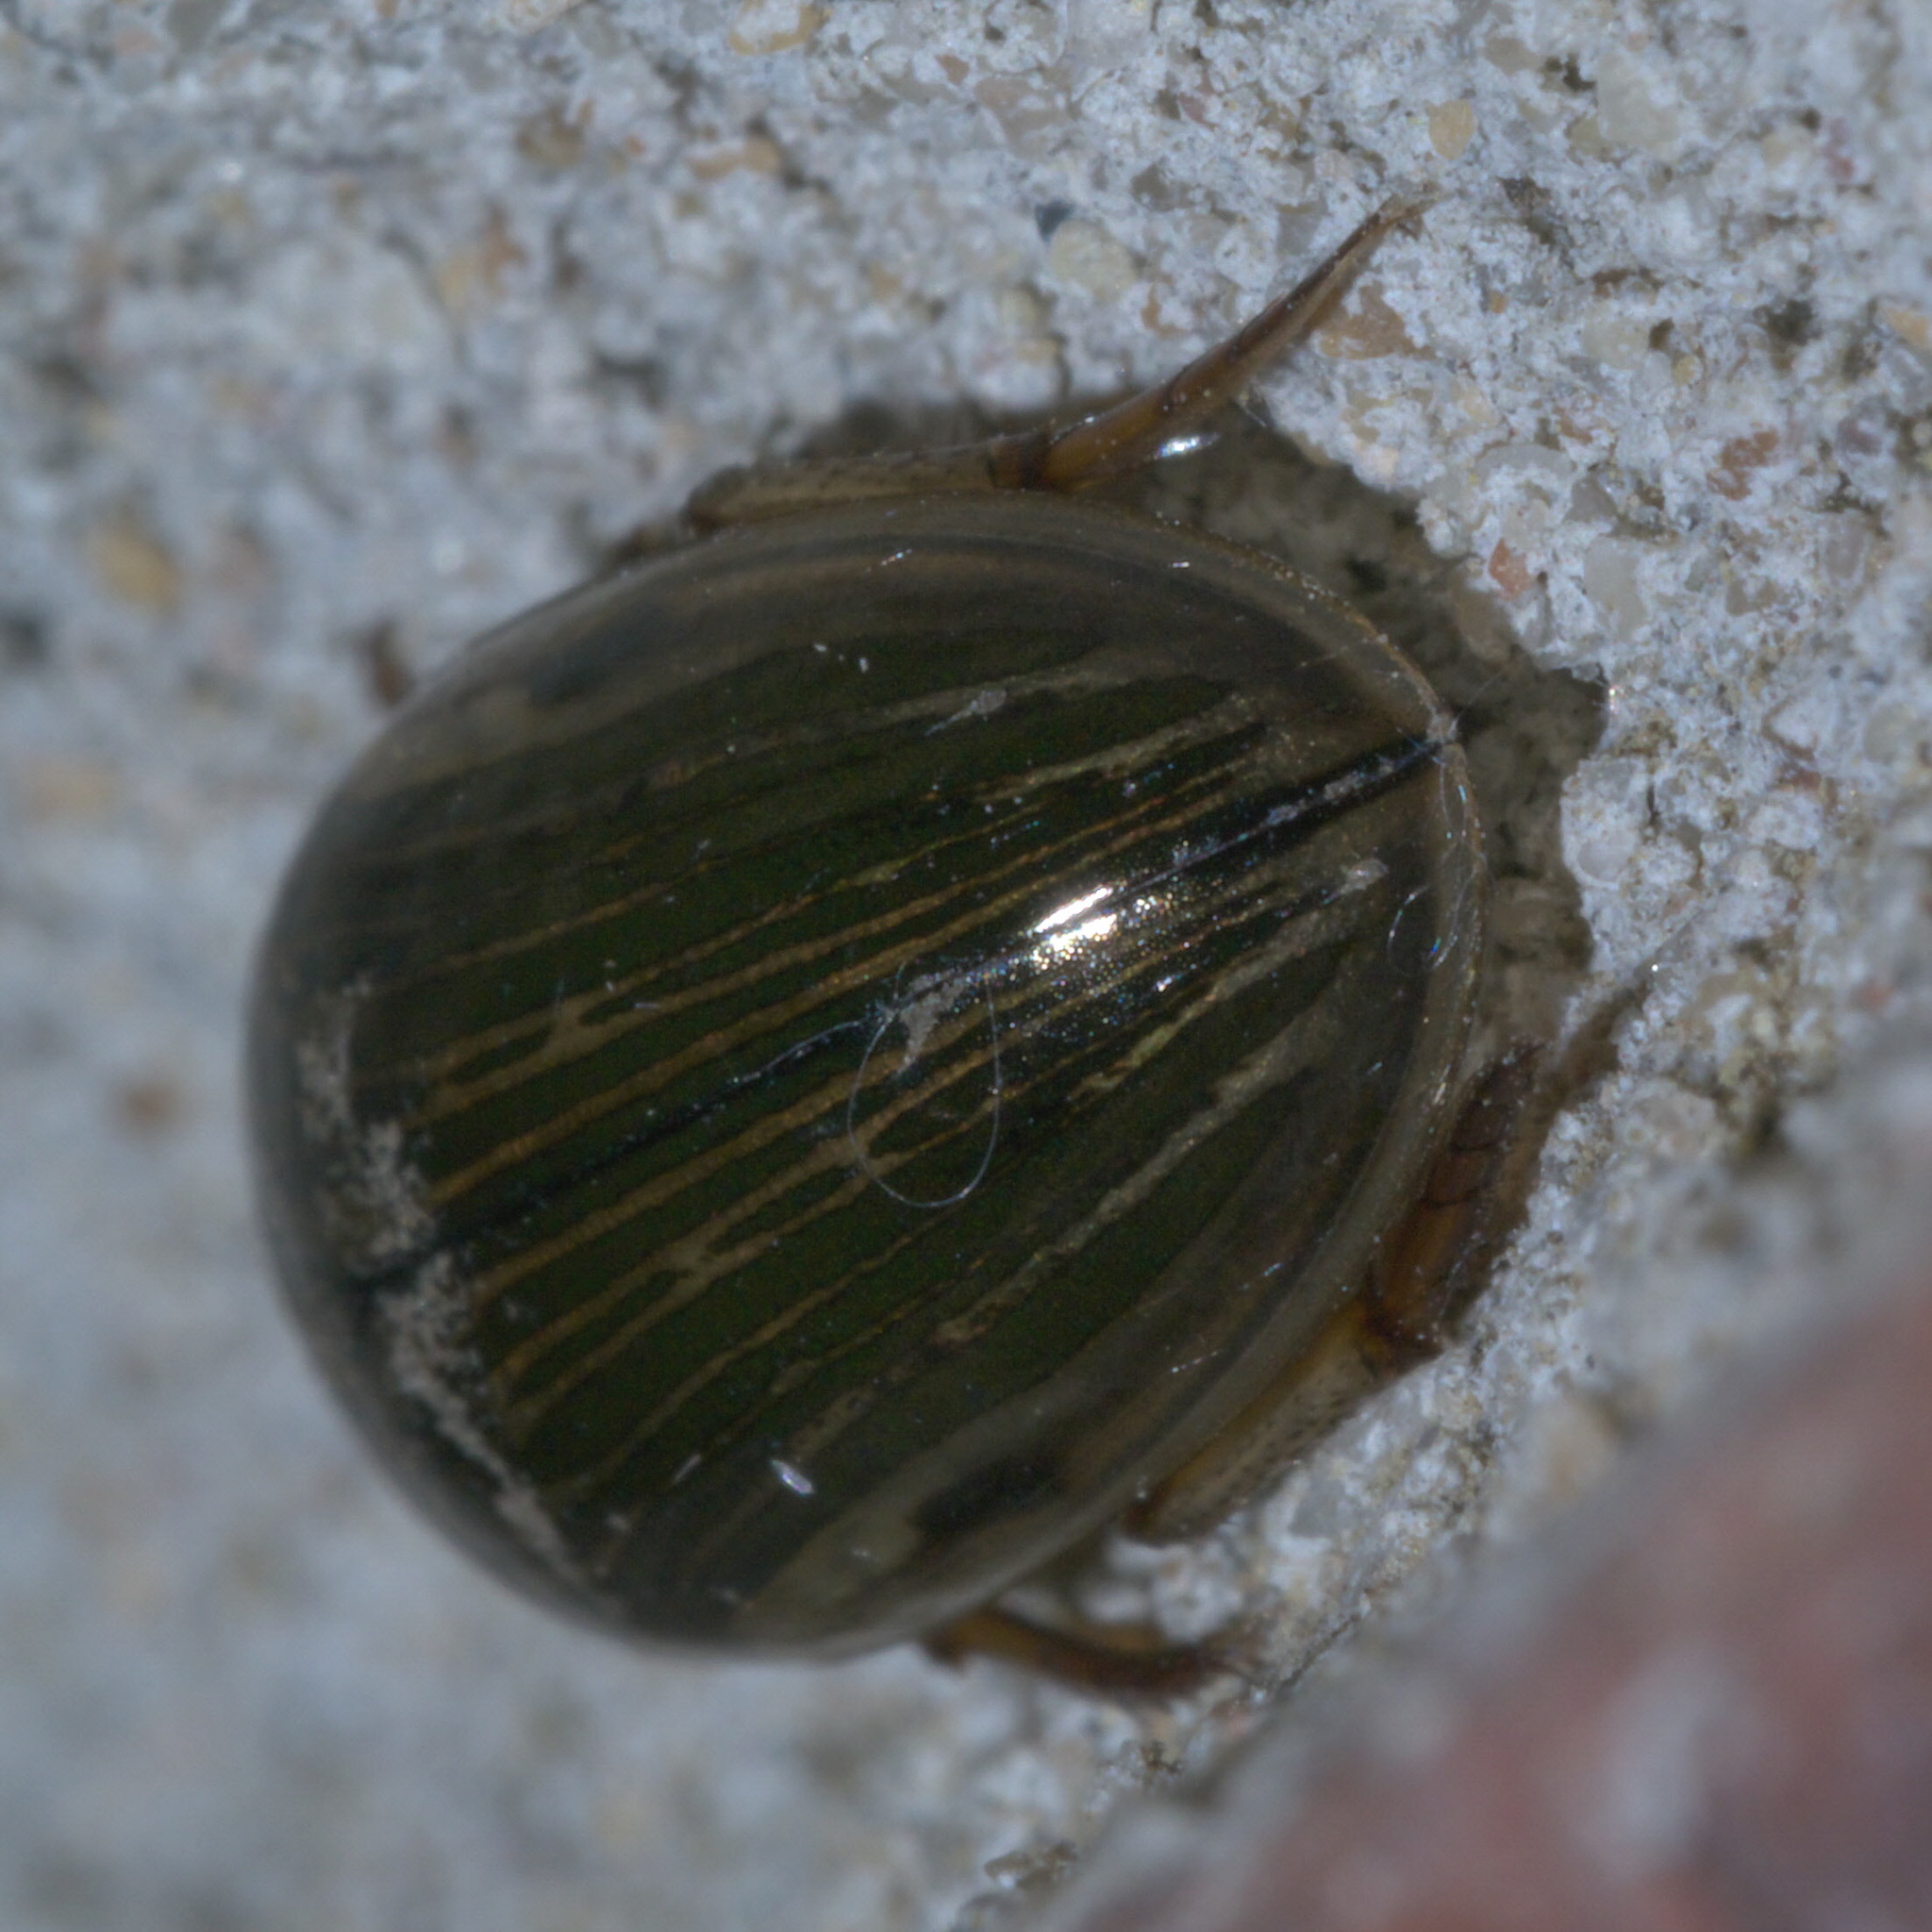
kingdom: Animalia
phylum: Arthropoda
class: Insecta
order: Coleoptera
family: Hydrophilidae
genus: Tropisternus
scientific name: Tropisternus collaris
